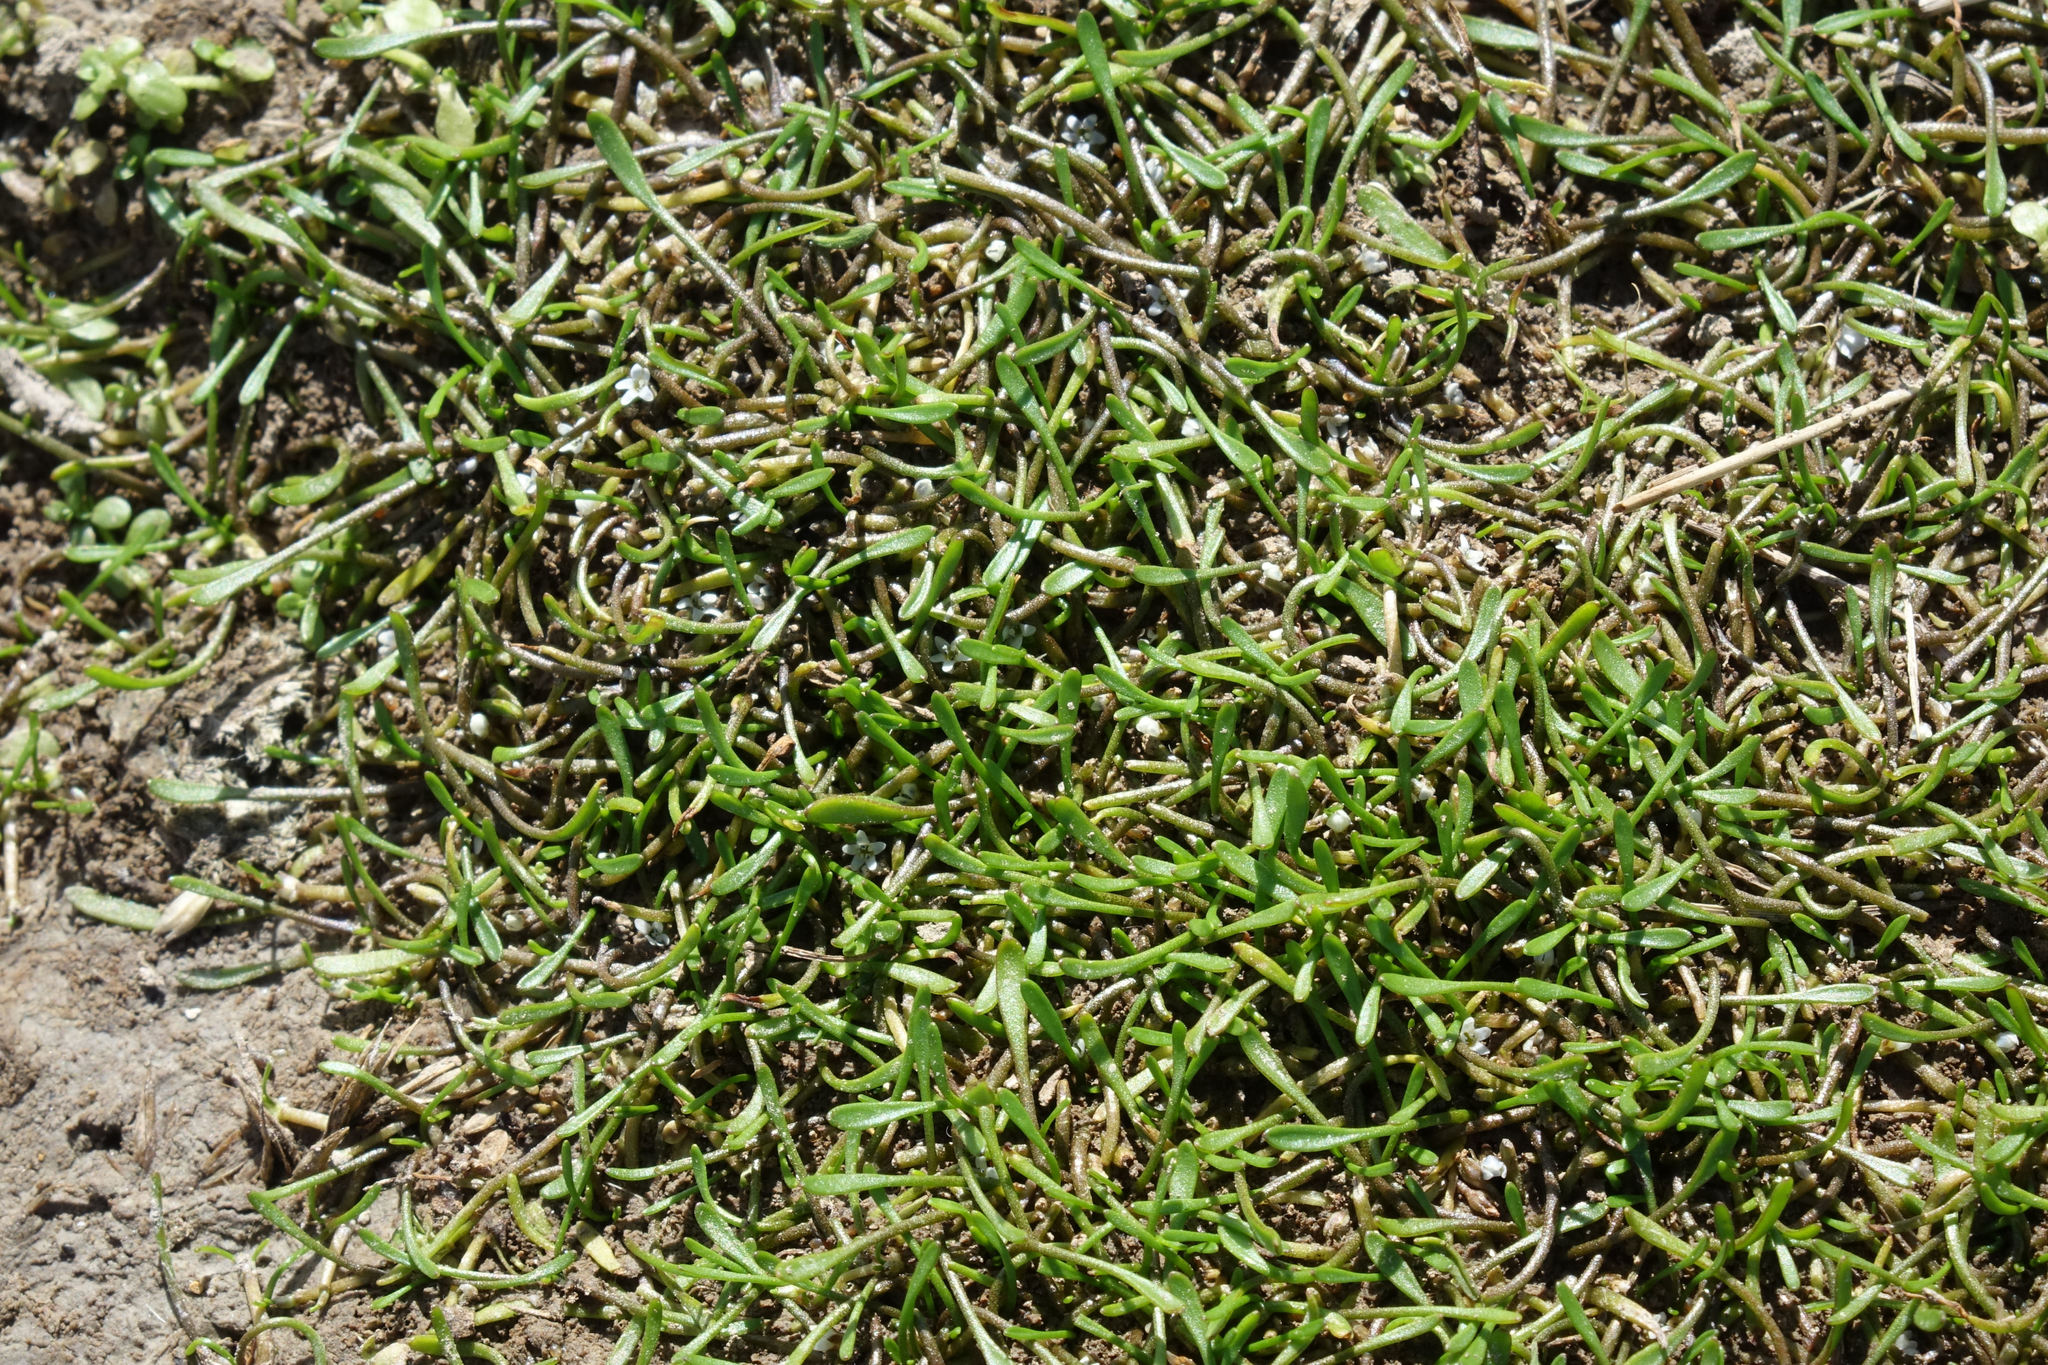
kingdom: Plantae
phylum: Tracheophyta
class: Magnoliopsida
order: Lamiales
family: Scrophulariaceae
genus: Limosella
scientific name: Limosella australis
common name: Welsh mudwort
